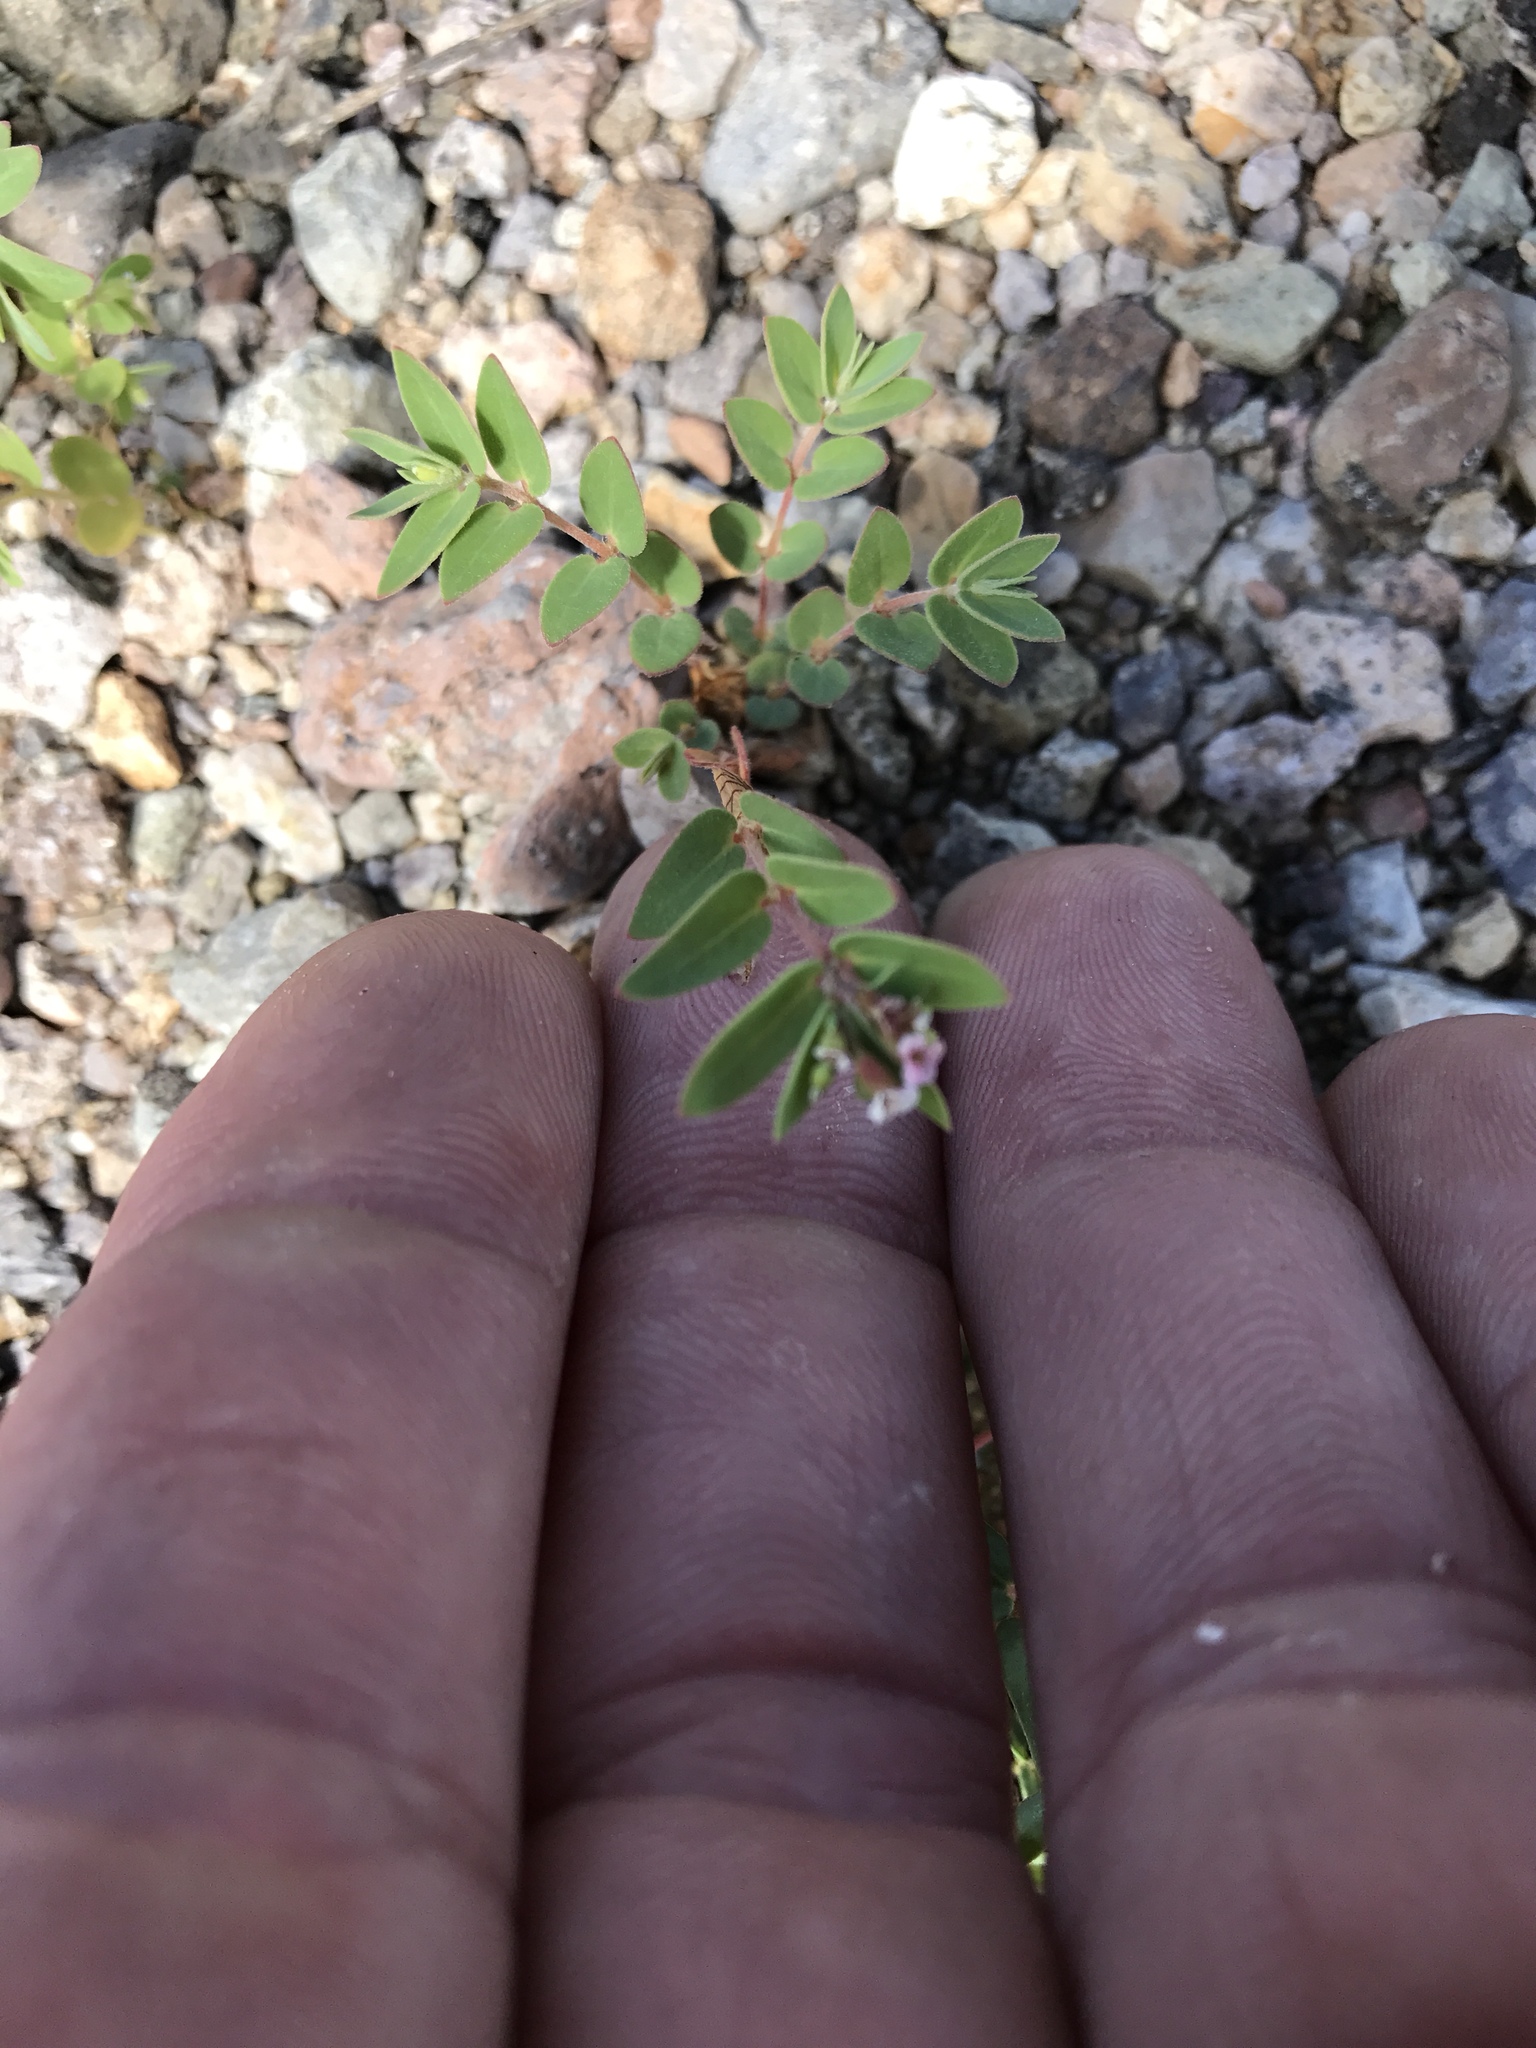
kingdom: Plantae
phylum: Tracheophyta
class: Magnoliopsida
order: Malpighiales
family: Euphorbiaceae
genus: Euphorbia
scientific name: Euphorbia capitellata
